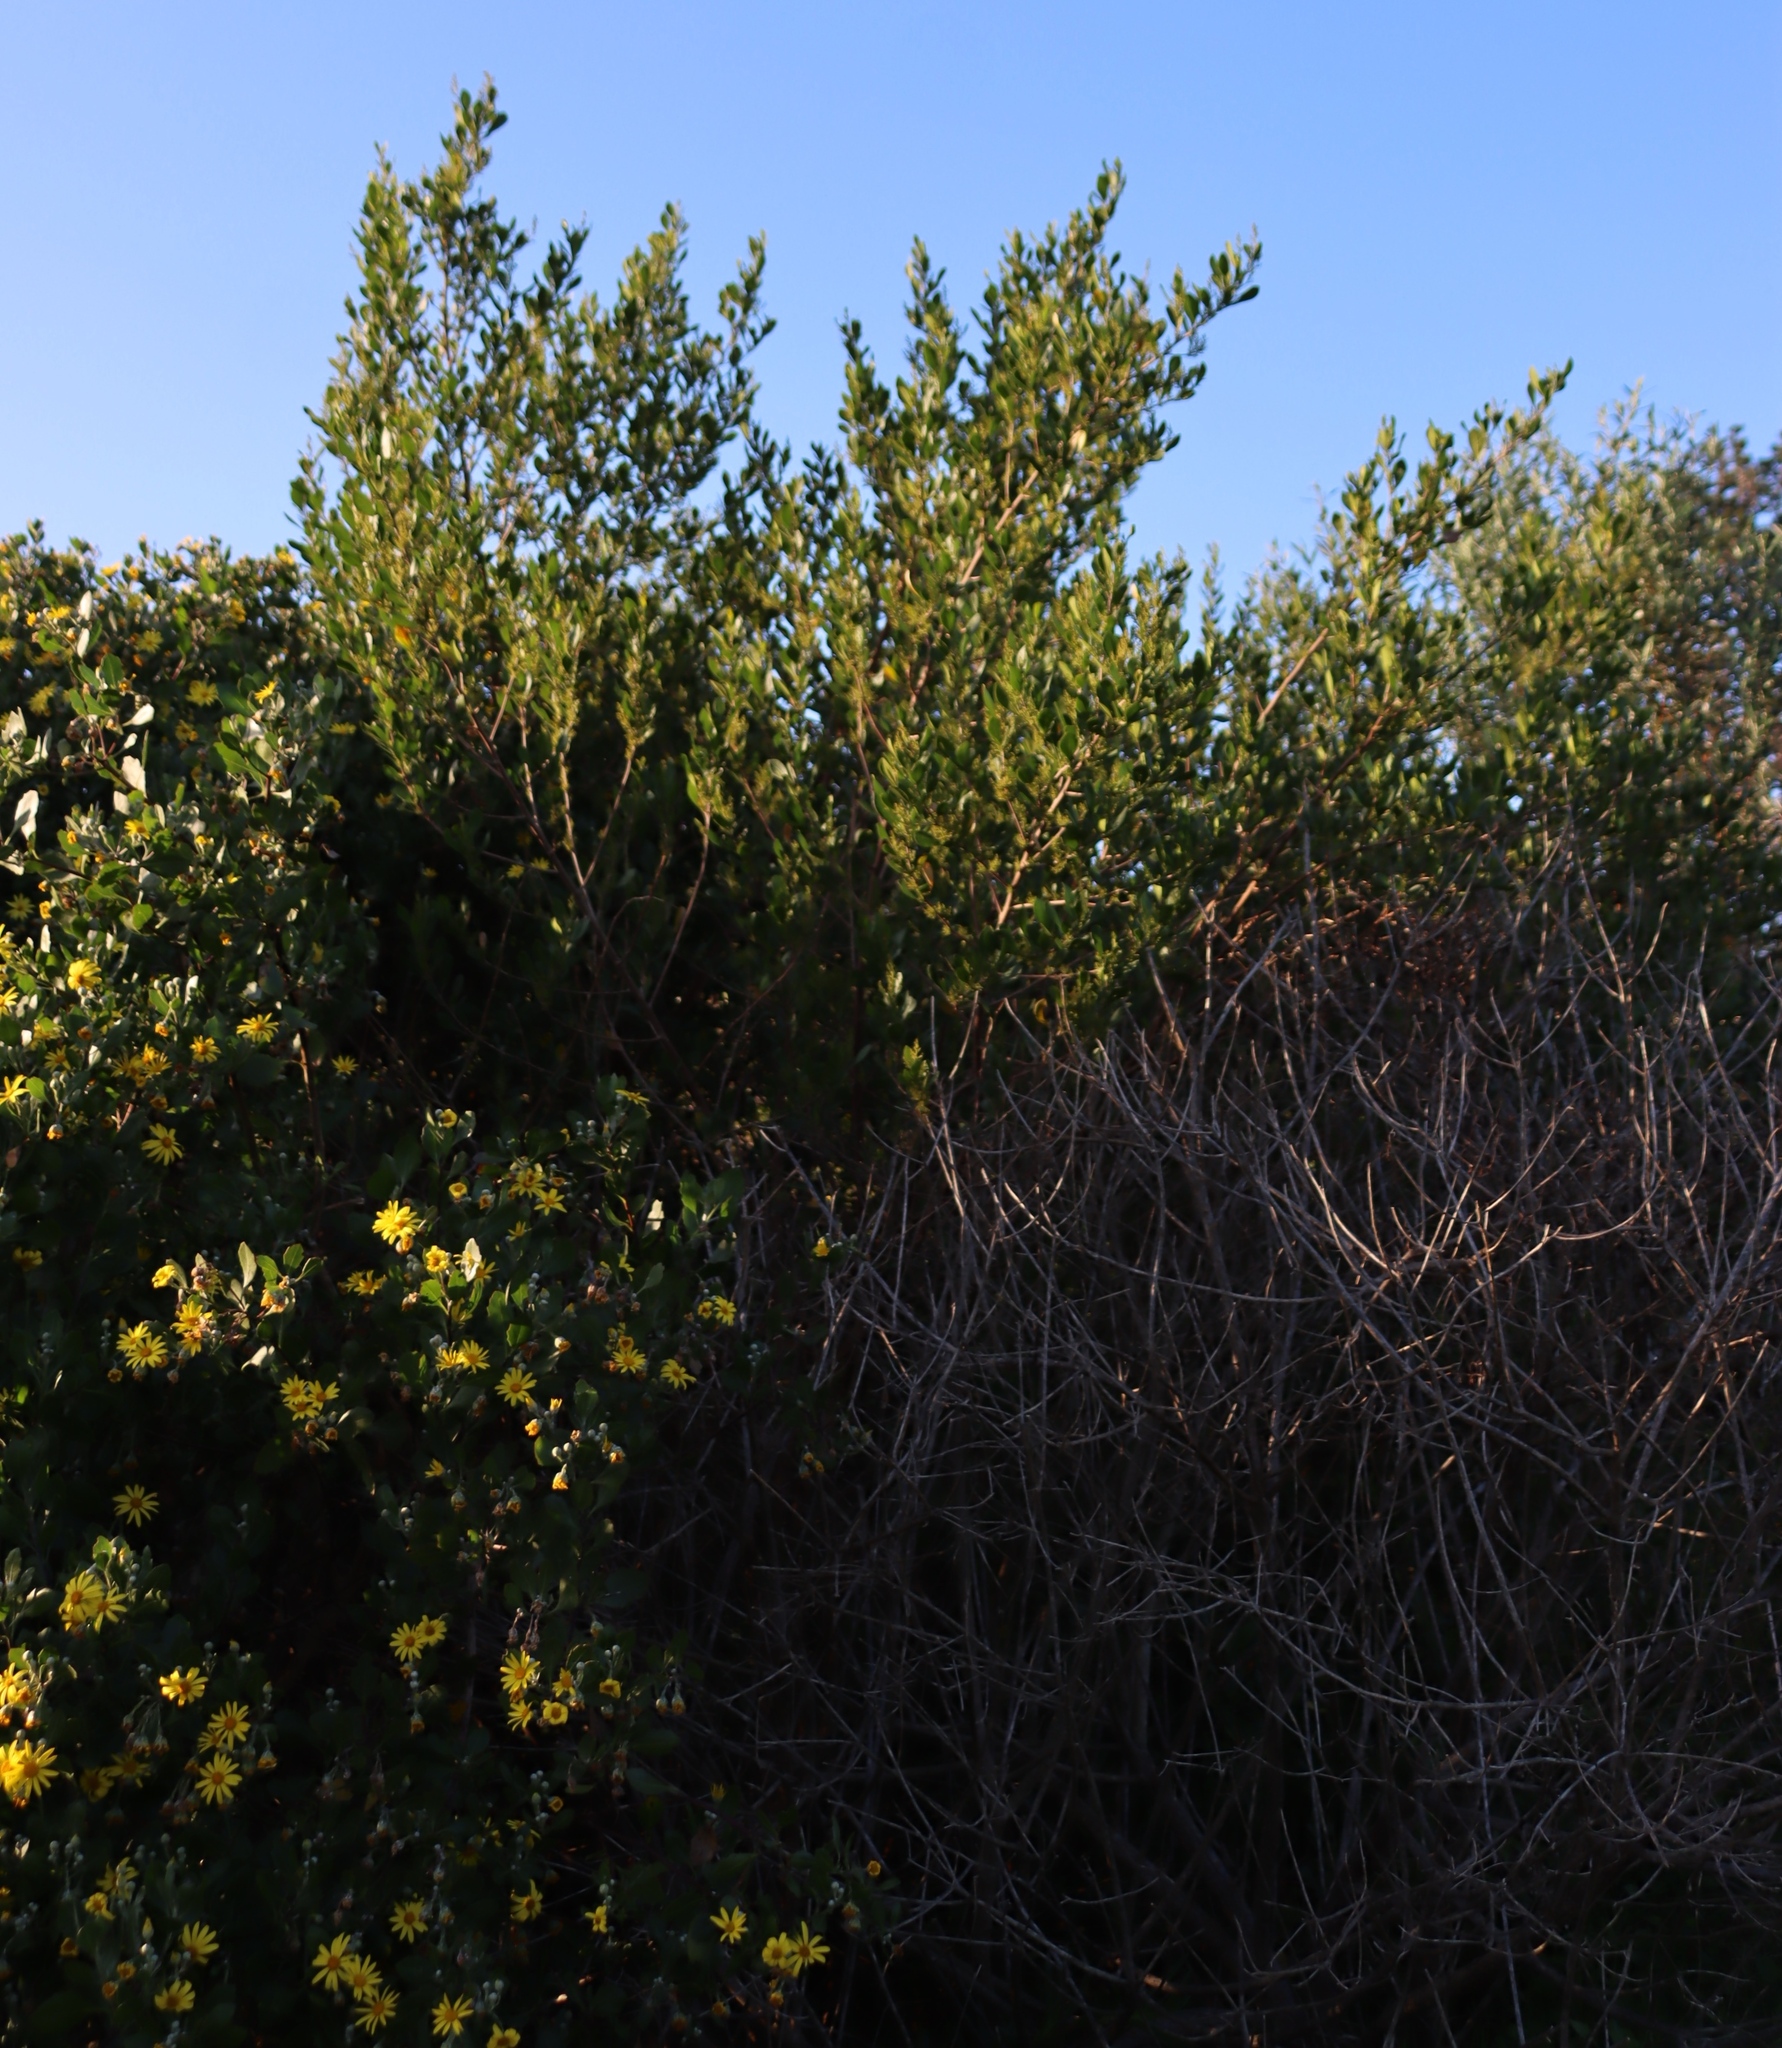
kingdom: Plantae
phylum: Tracheophyta
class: Magnoliopsida
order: Sapindales
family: Anacardiaceae
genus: Searsia
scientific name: Searsia lucida
